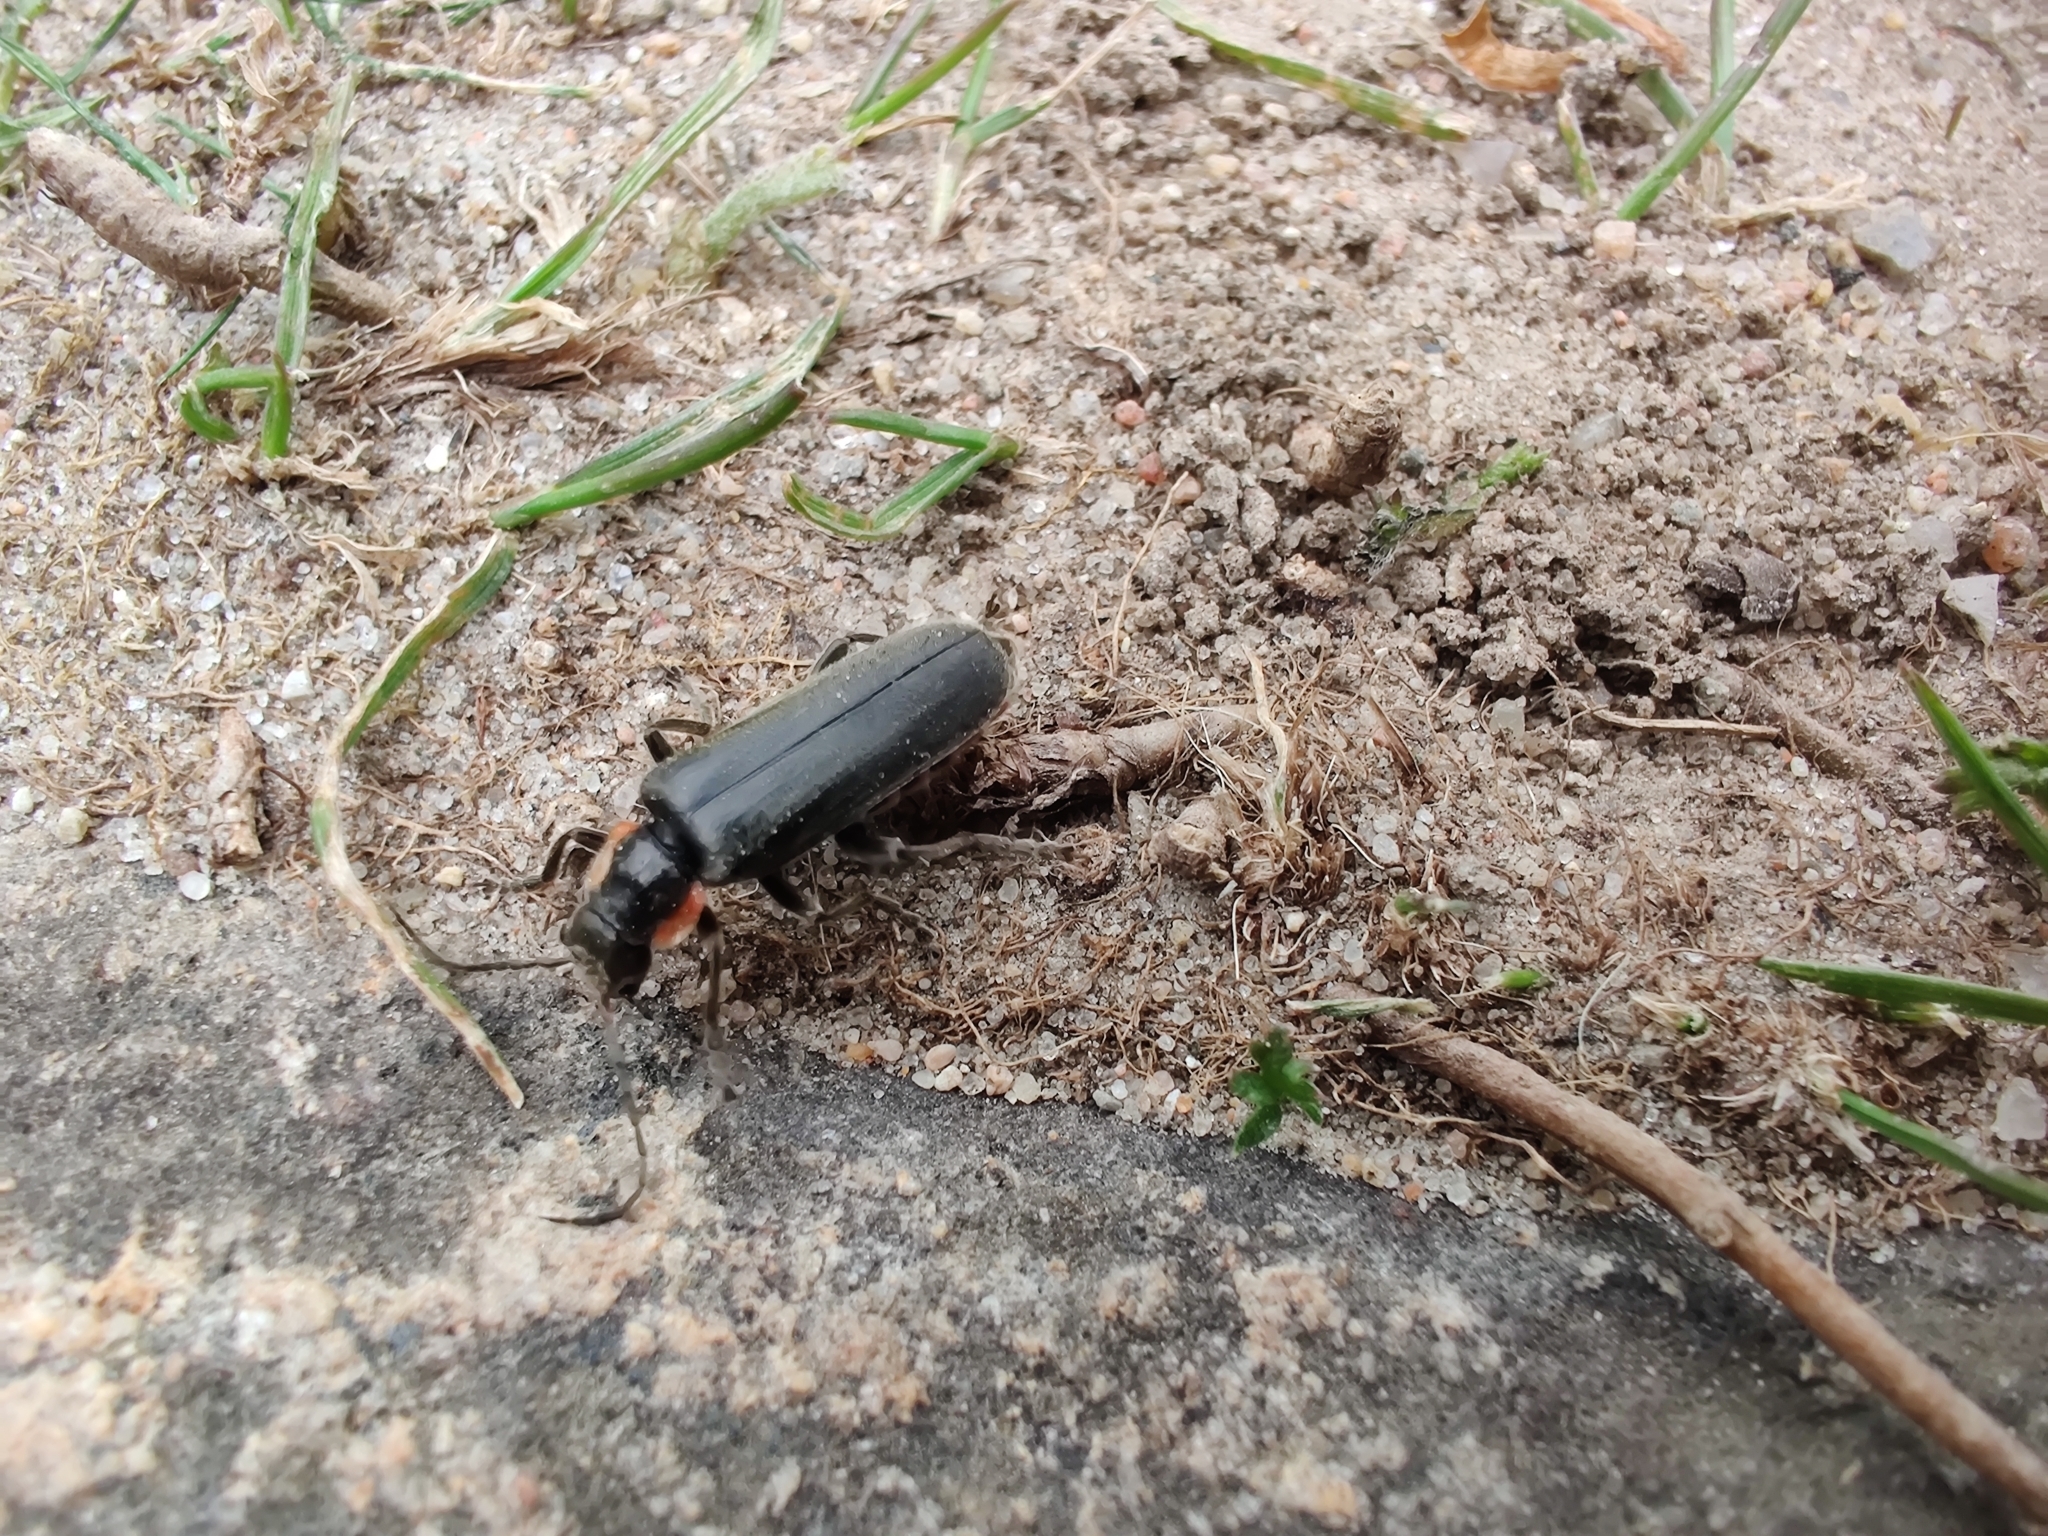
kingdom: Animalia
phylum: Arthropoda
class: Insecta
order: Coleoptera
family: Cantharidae
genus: Cantharis
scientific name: Cantharis obscura
